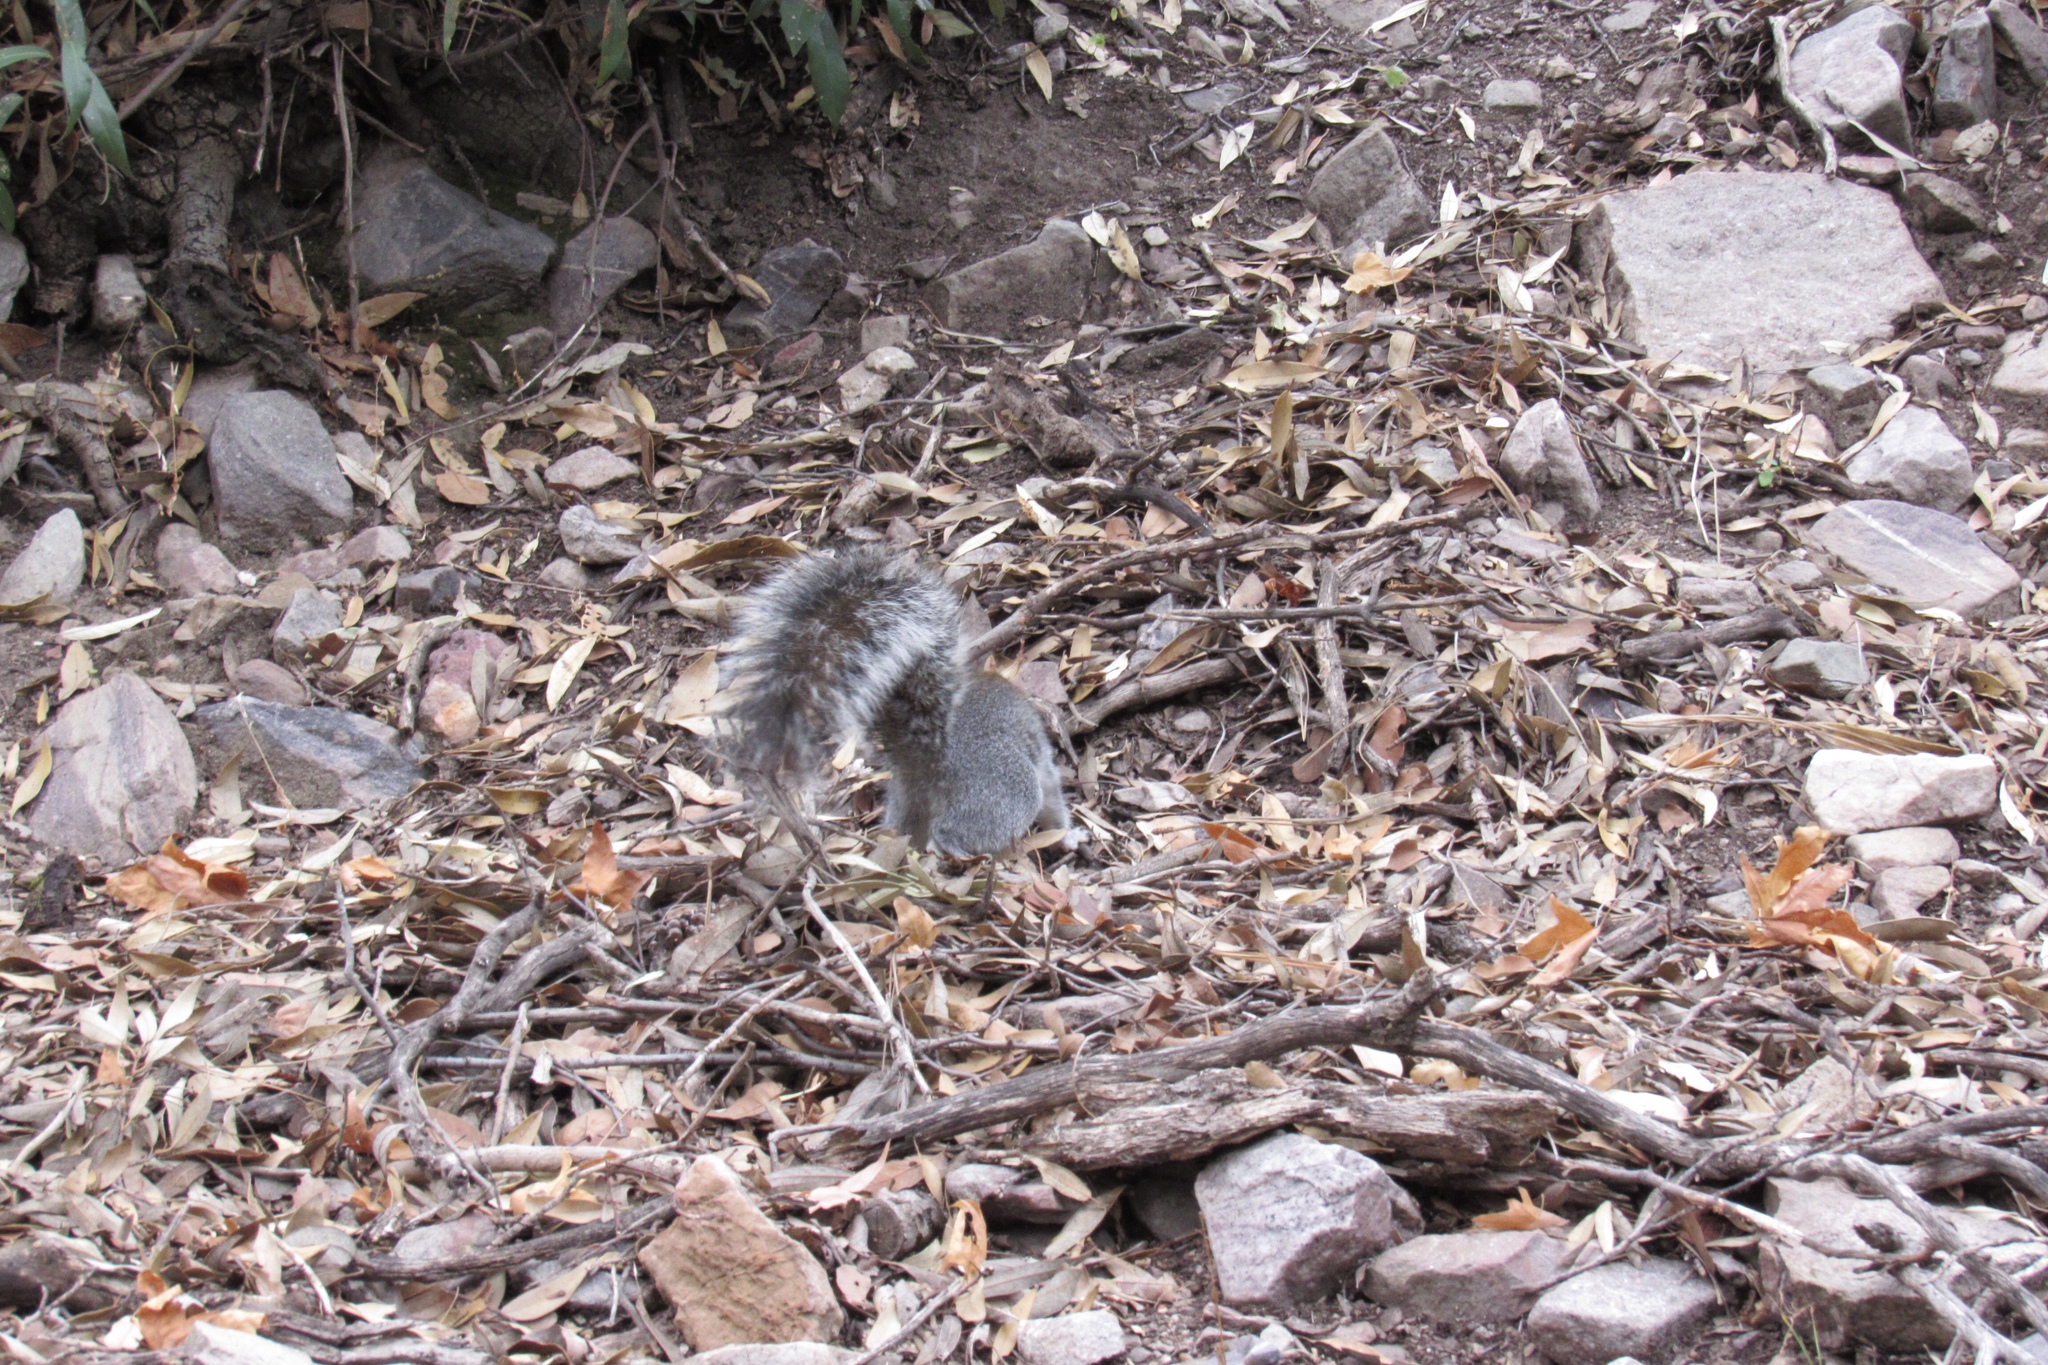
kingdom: Animalia
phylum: Chordata
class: Mammalia
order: Rodentia
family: Sciuridae
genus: Sciurus
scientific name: Sciurus arizonensis
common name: Arizona gray squirrel
